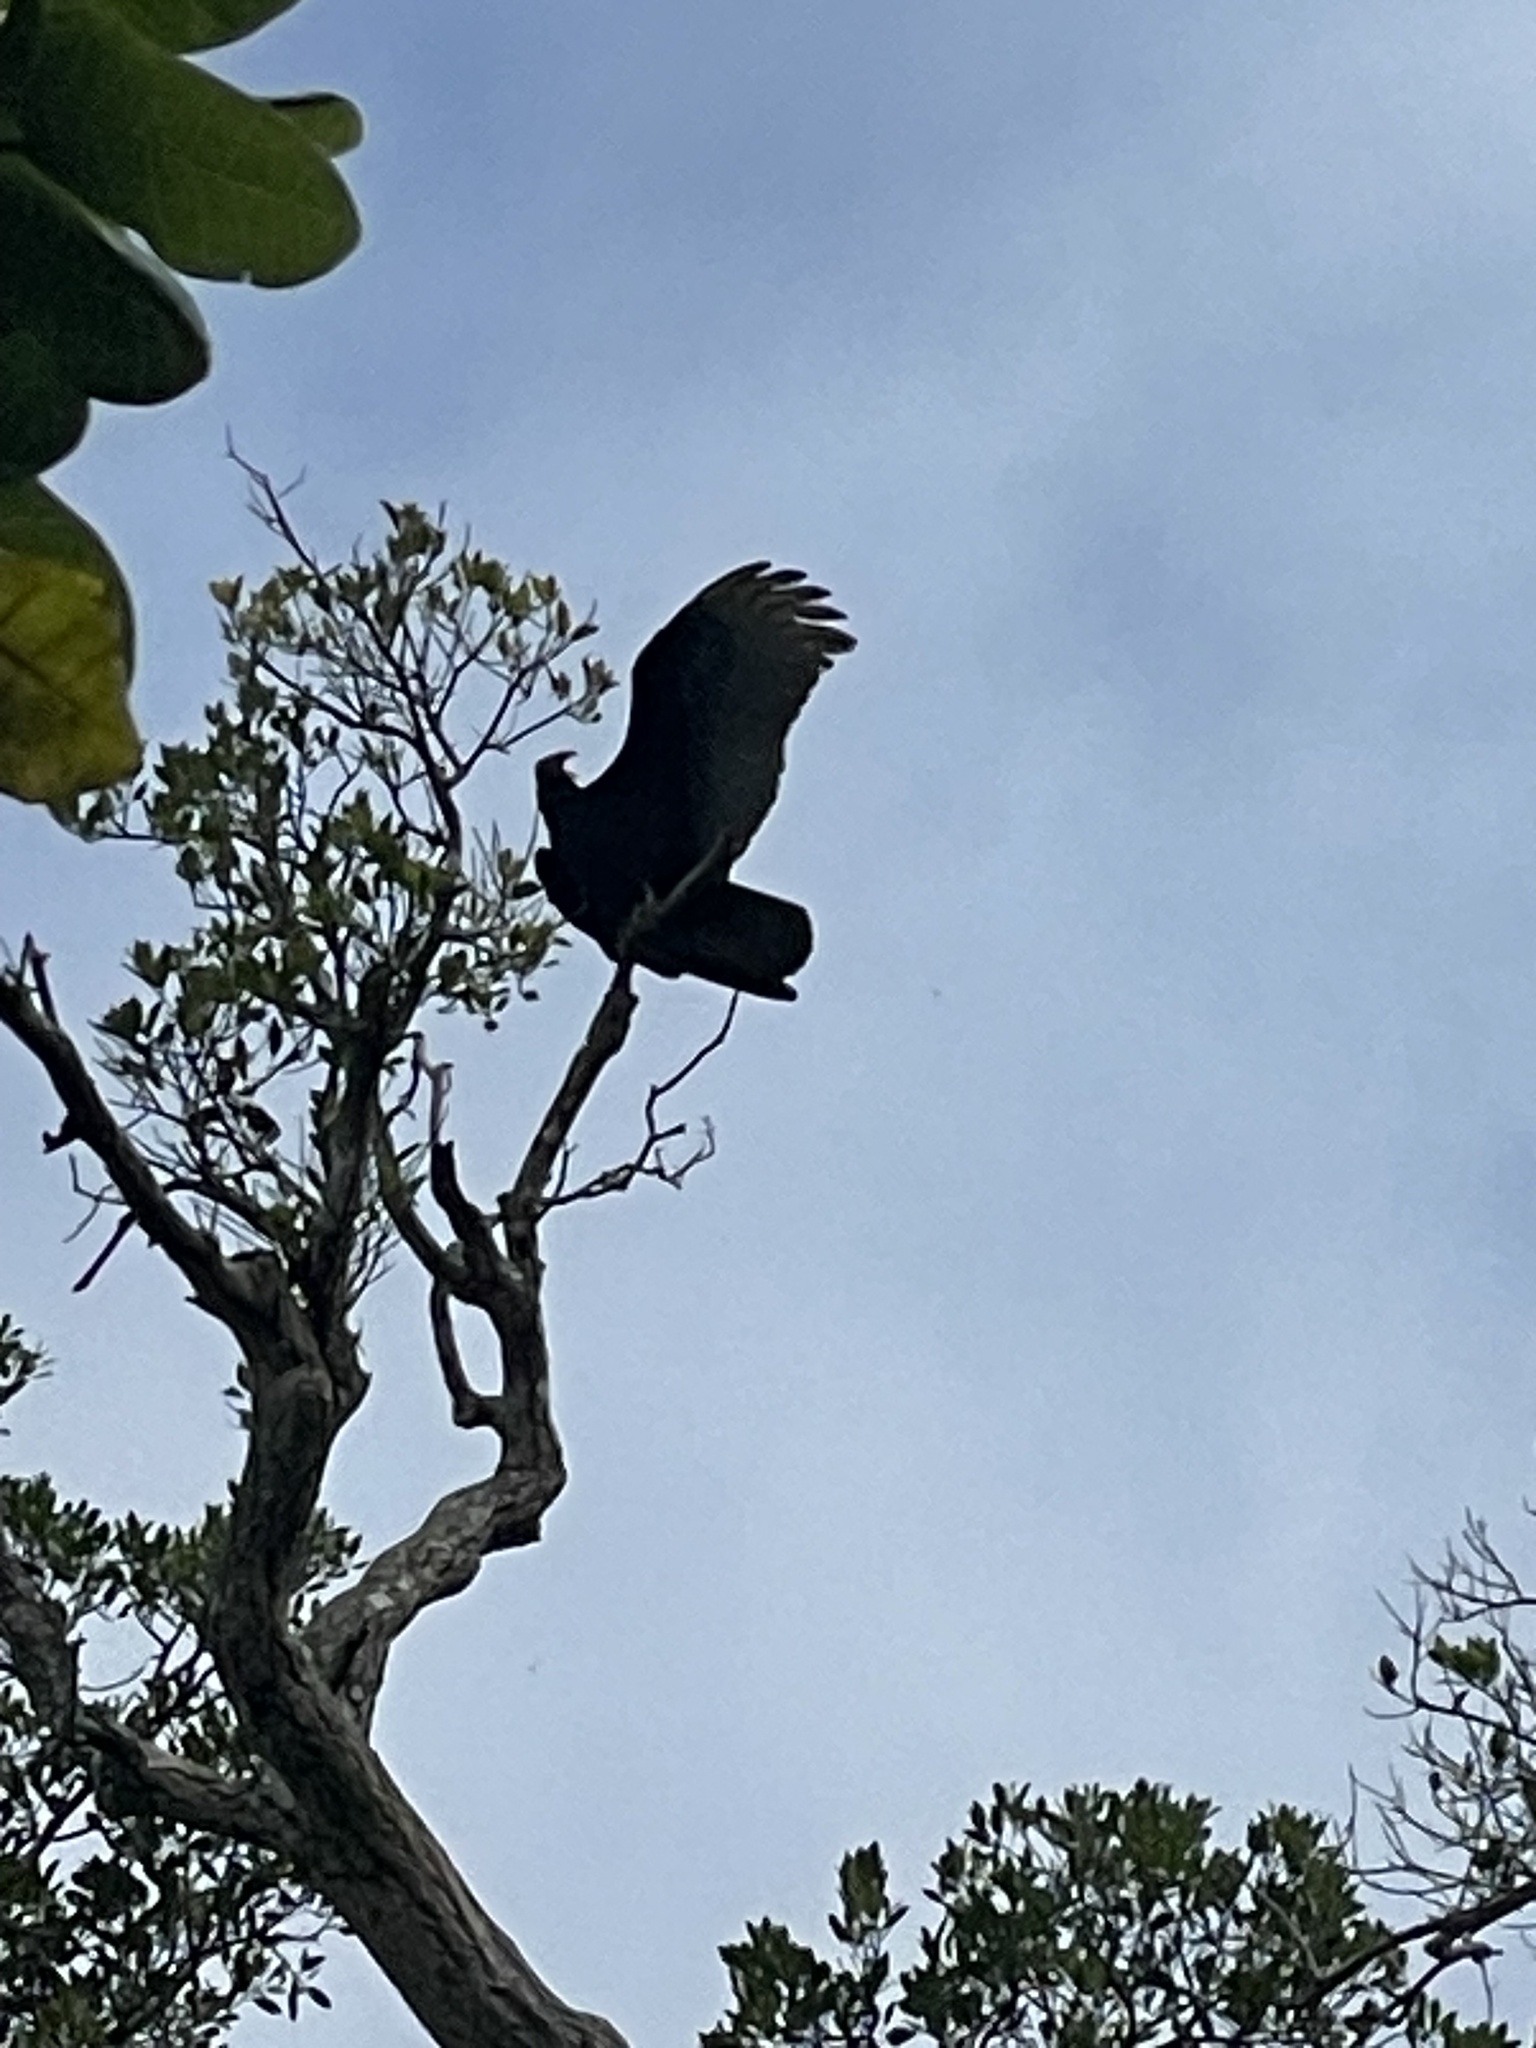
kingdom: Animalia
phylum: Chordata
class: Aves
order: Accipitriformes
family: Cathartidae
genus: Cathartes
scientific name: Cathartes aura
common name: Turkey vulture
